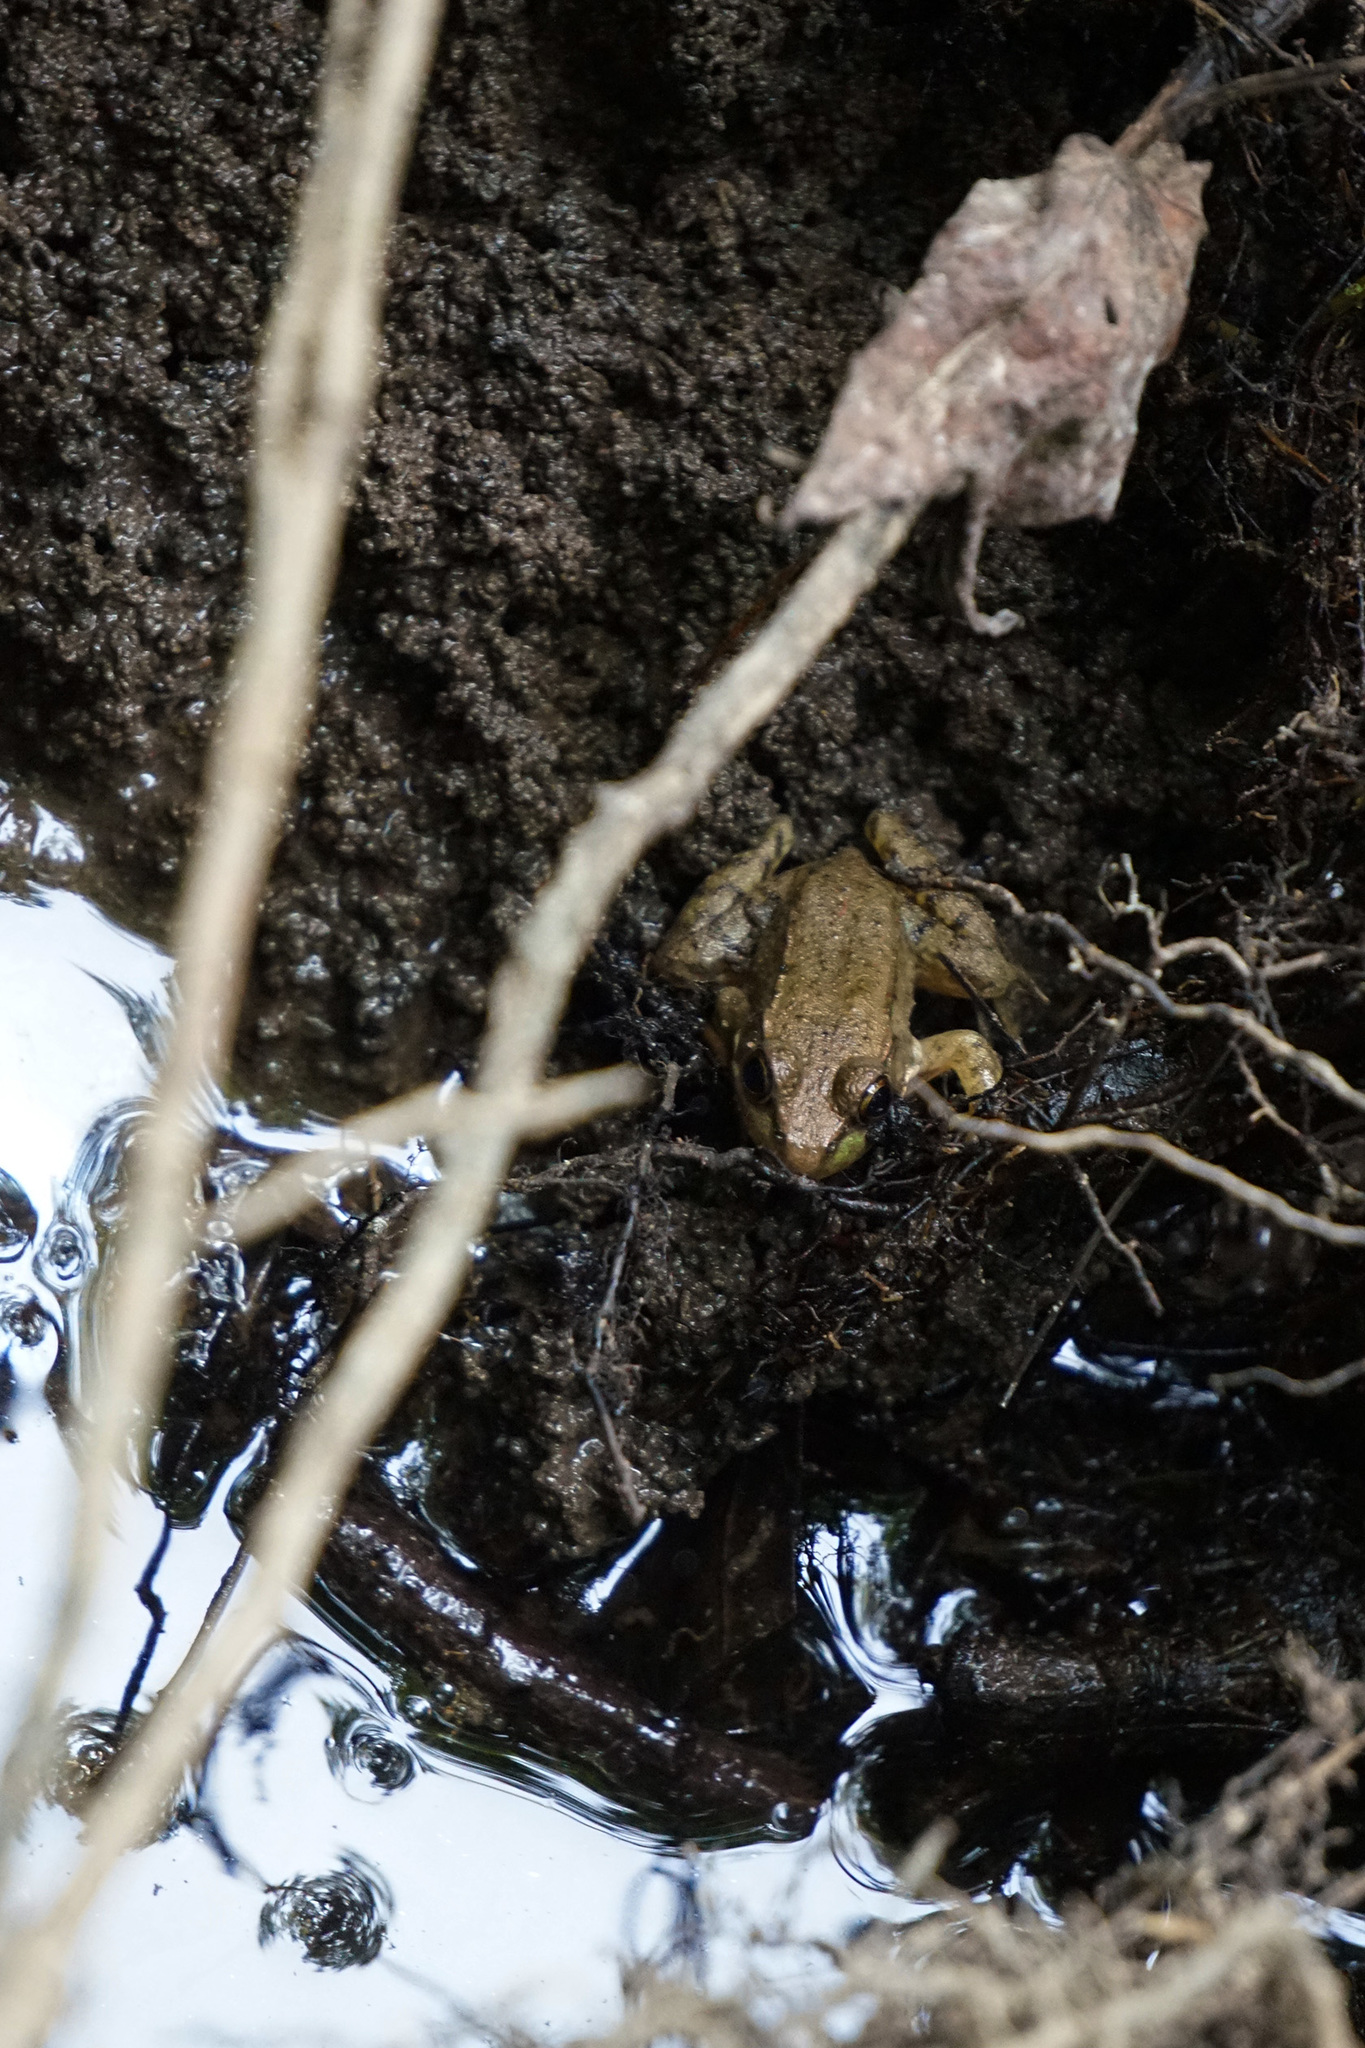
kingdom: Animalia
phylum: Chordata
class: Amphibia
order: Anura
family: Ranidae
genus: Lithobates
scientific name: Lithobates clamitans
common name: Green frog
